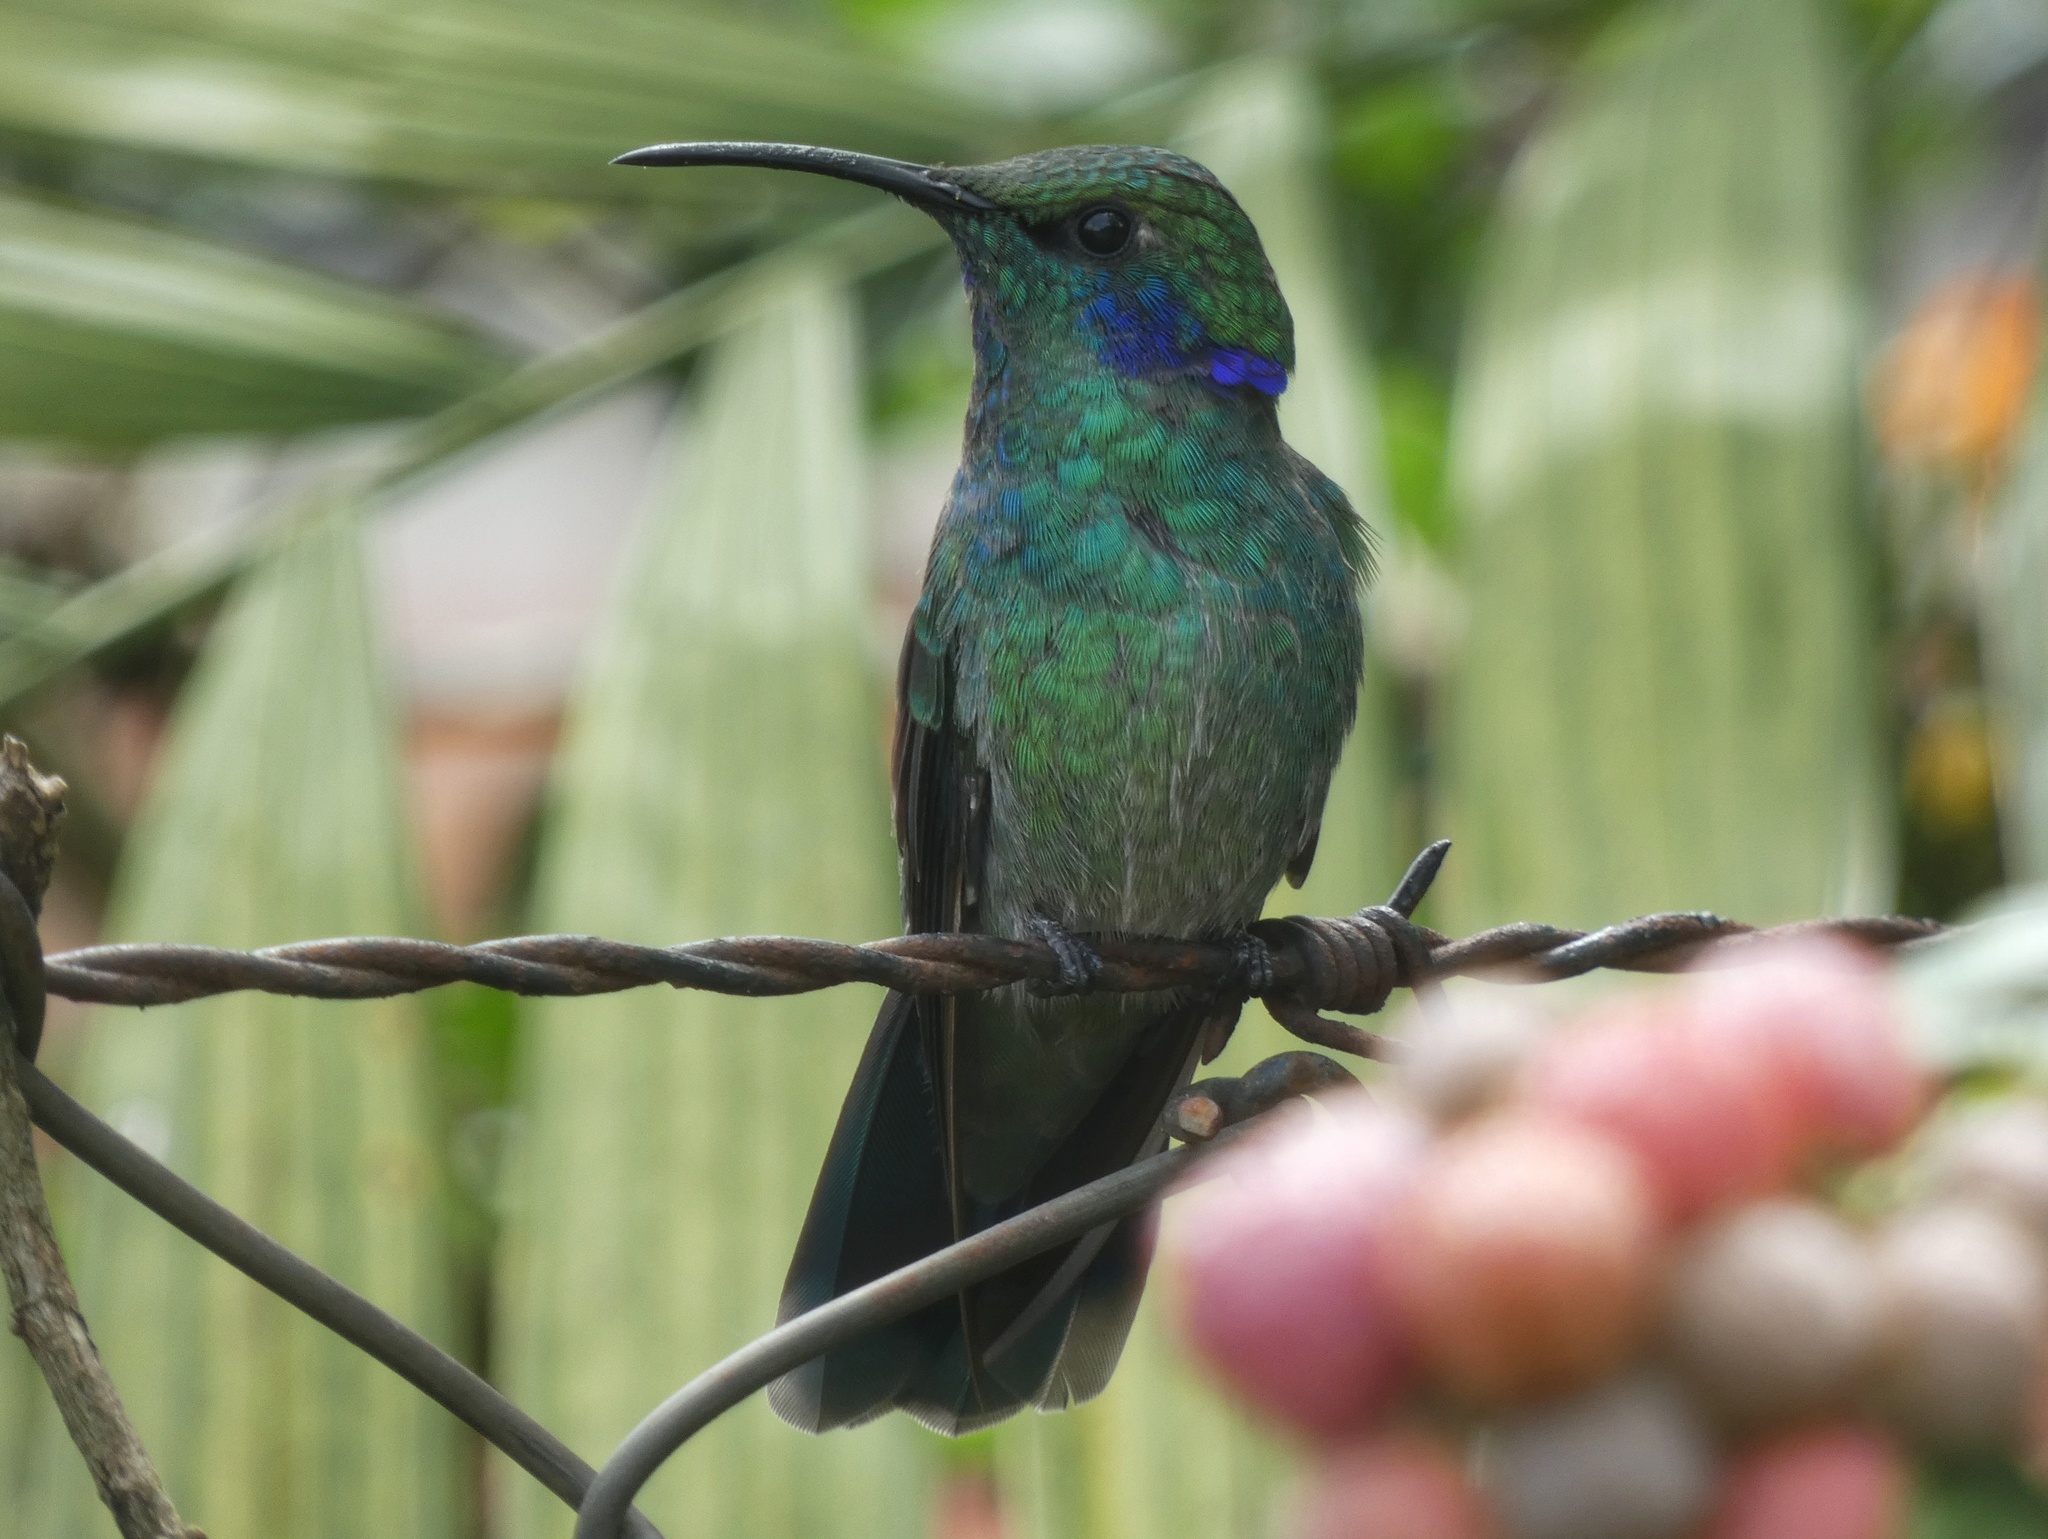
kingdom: Animalia
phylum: Chordata
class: Aves
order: Apodiformes
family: Trochilidae
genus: Colibri
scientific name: Colibri cyanotus
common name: Lesser violetear
